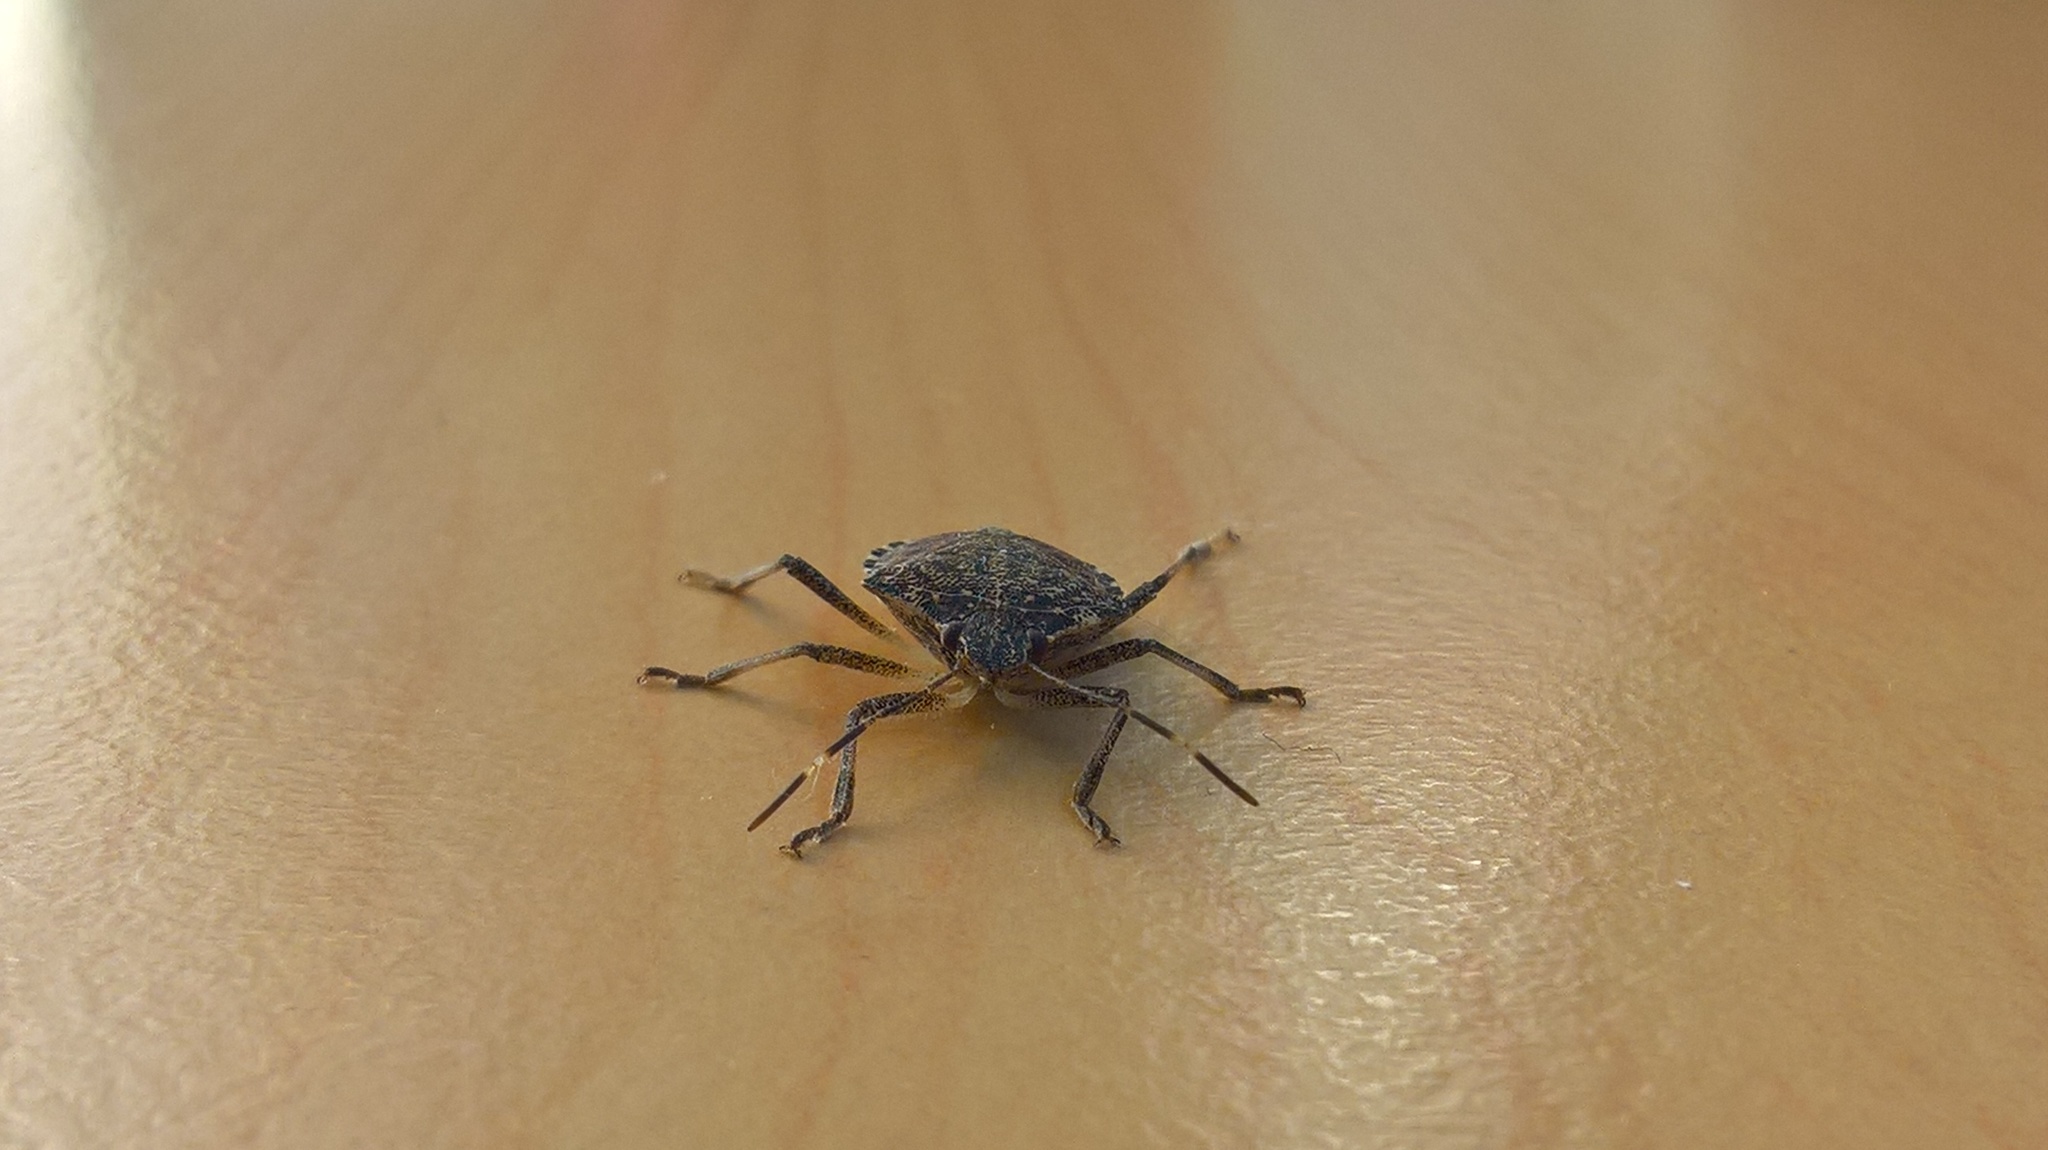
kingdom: Animalia
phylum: Arthropoda
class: Insecta
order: Hemiptera
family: Pentatomidae
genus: Halyomorpha
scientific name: Halyomorpha halys
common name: Brown marmorated stink bug
